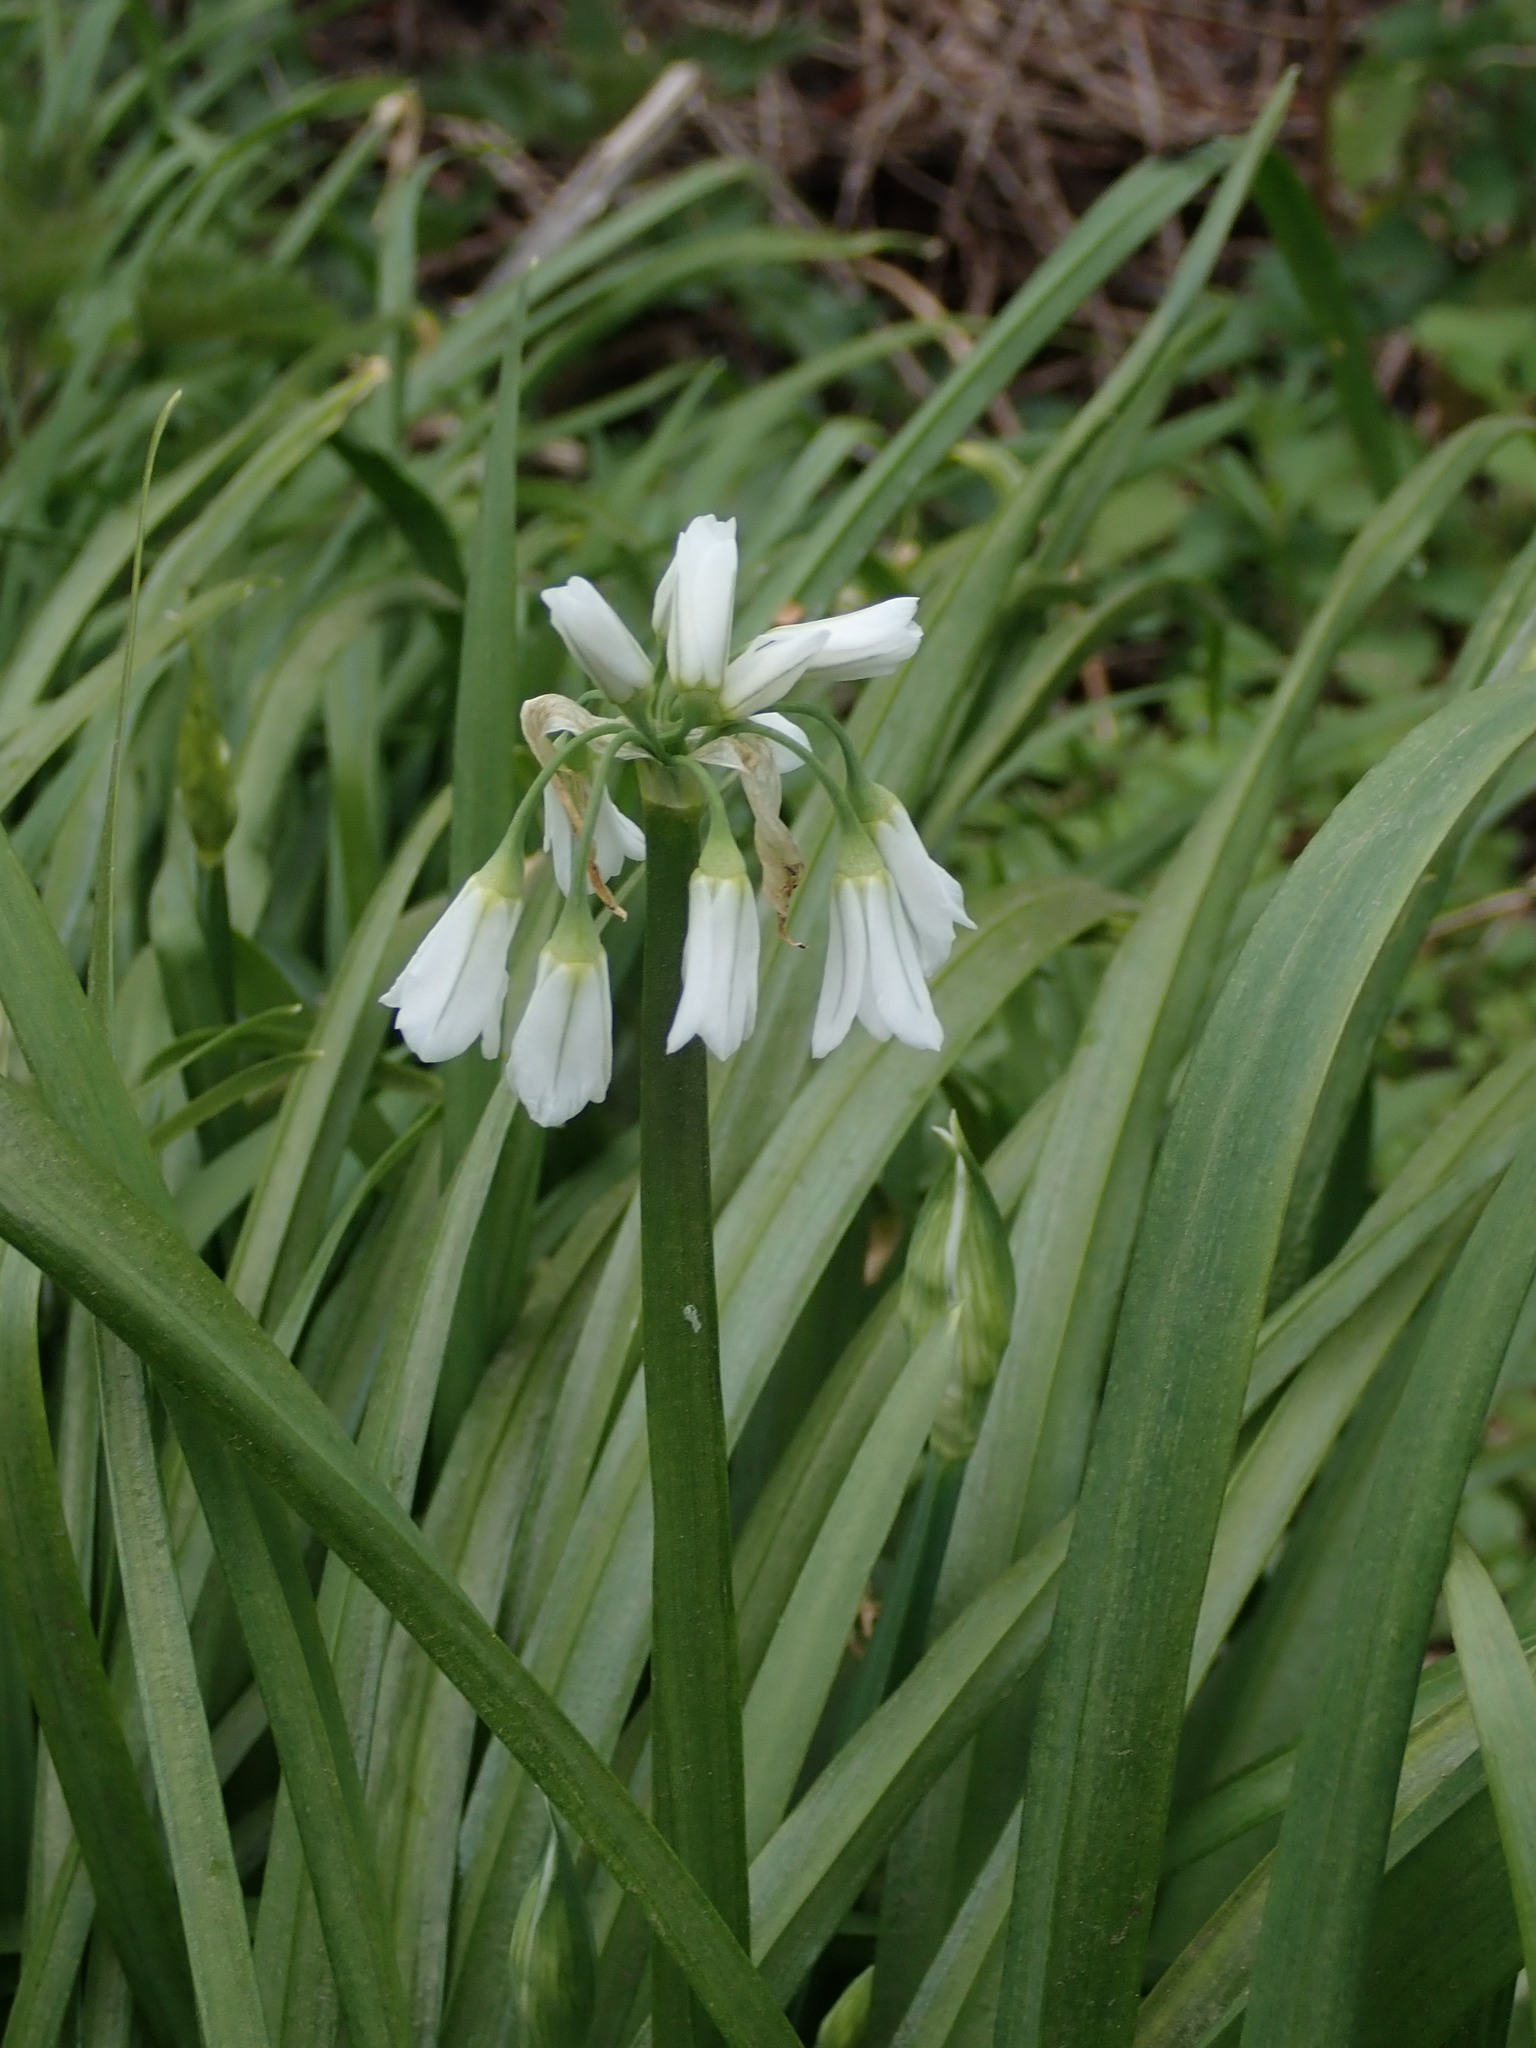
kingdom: Plantae
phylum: Tracheophyta
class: Liliopsida
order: Asparagales
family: Amaryllidaceae
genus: Allium
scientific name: Allium triquetrum
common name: Three-cornered garlic
